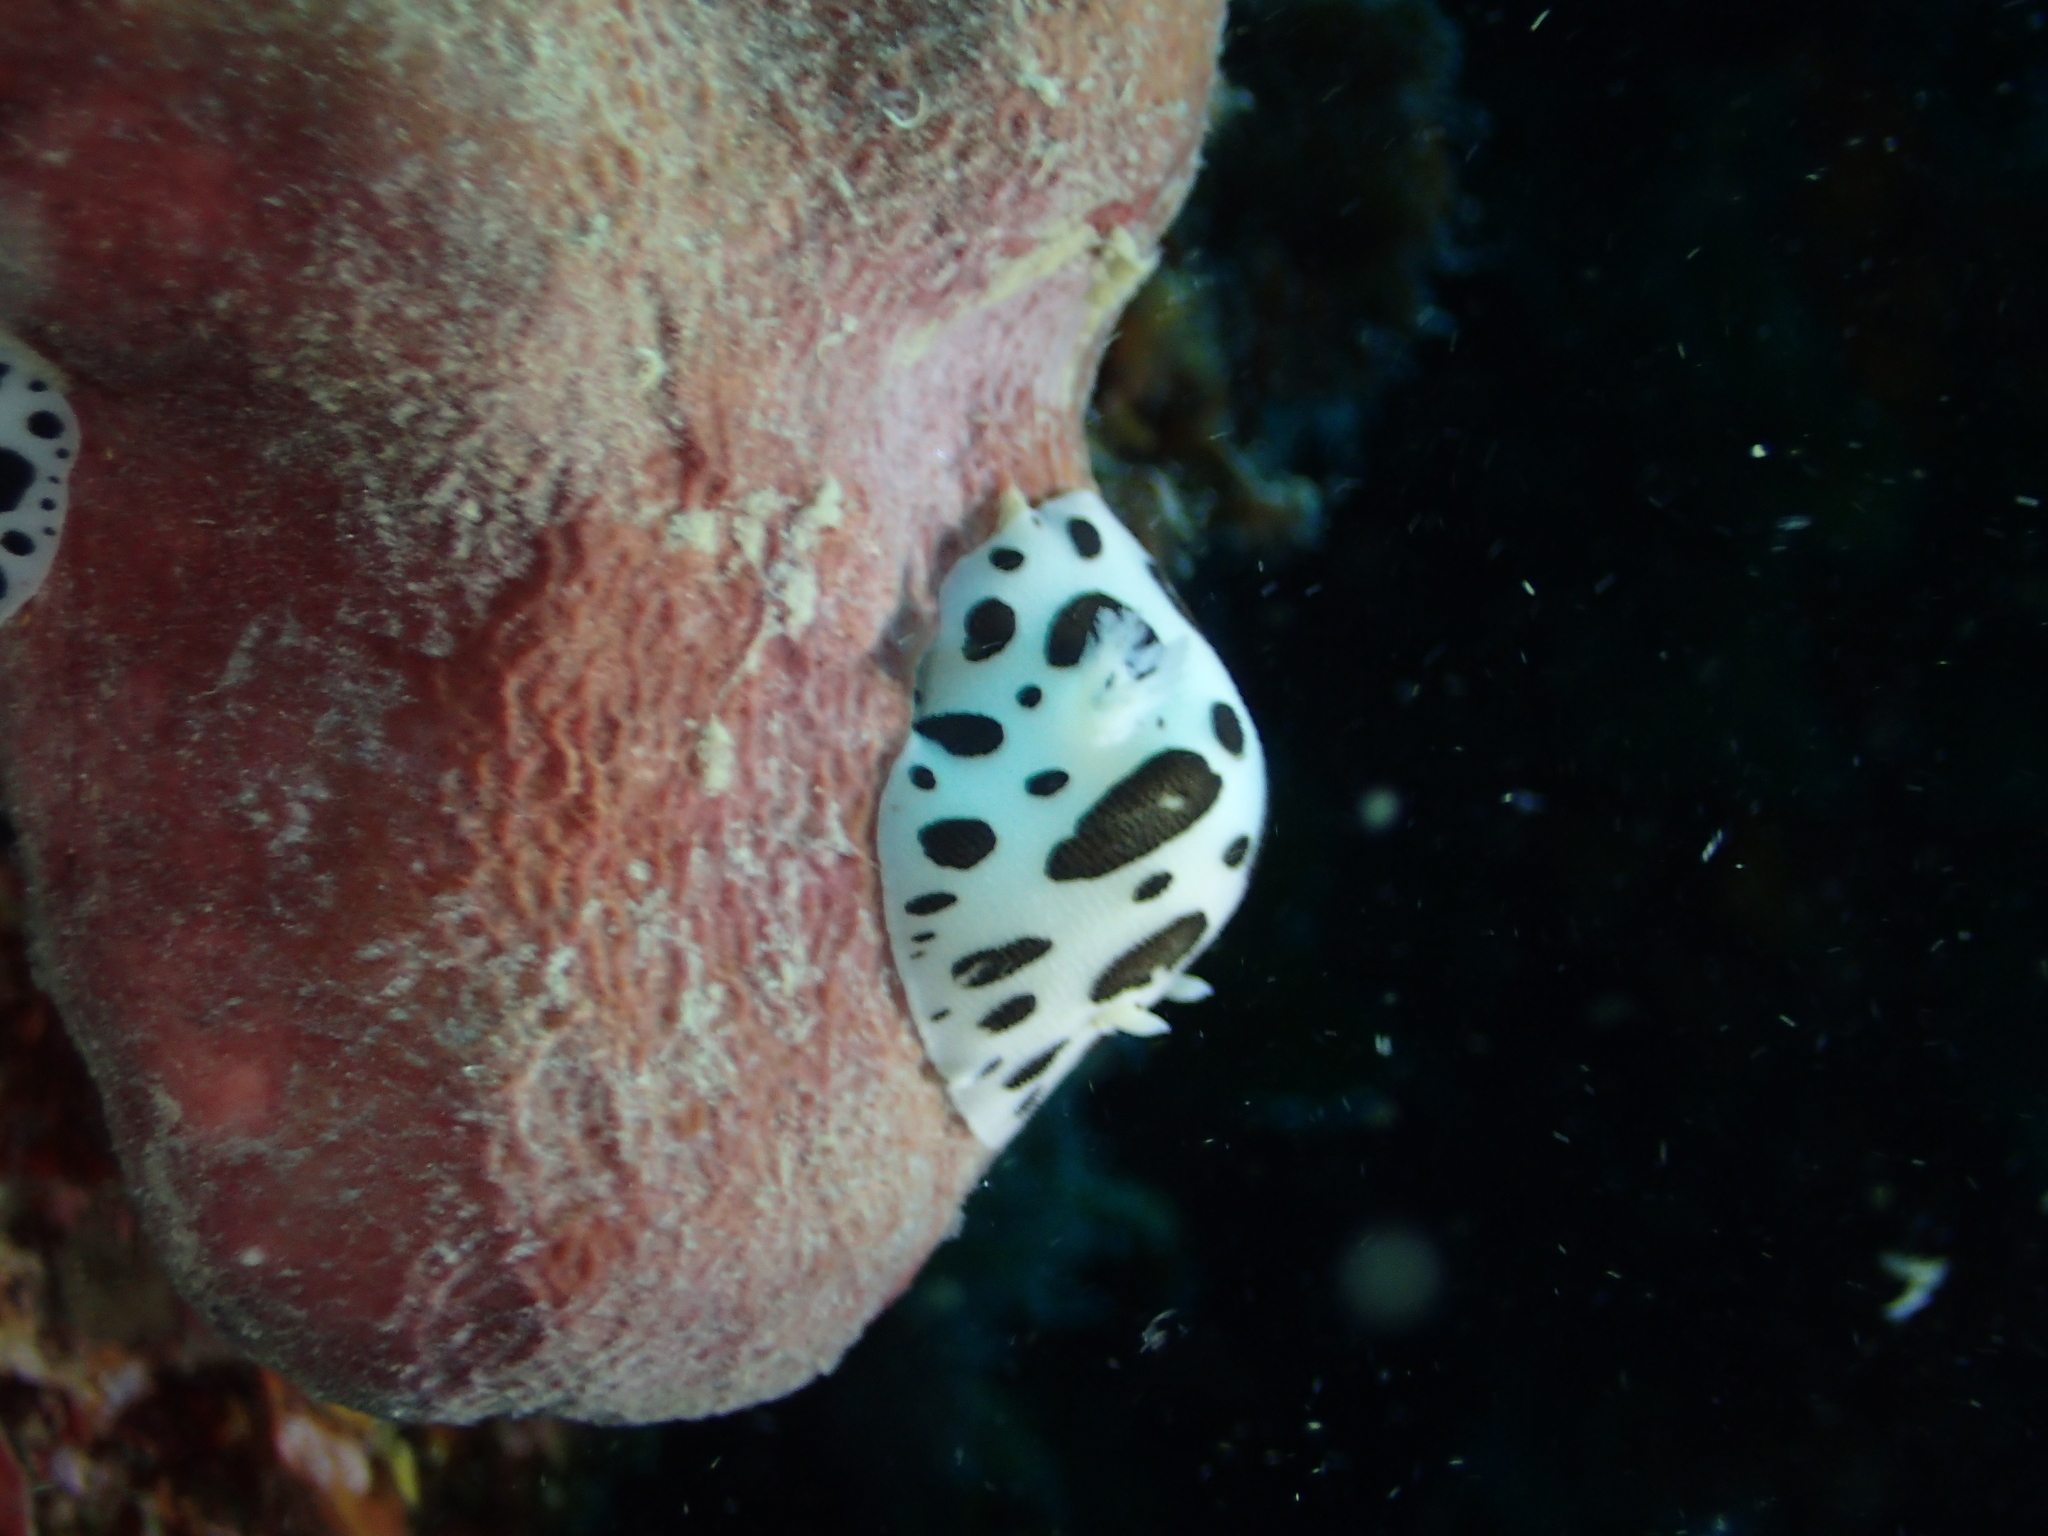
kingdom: Animalia
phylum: Mollusca
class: Gastropoda
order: Nudibranchia
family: Discodorididae
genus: Peltodoris
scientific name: Peltodoris atromaculata
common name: Swiss cow nudibranch
